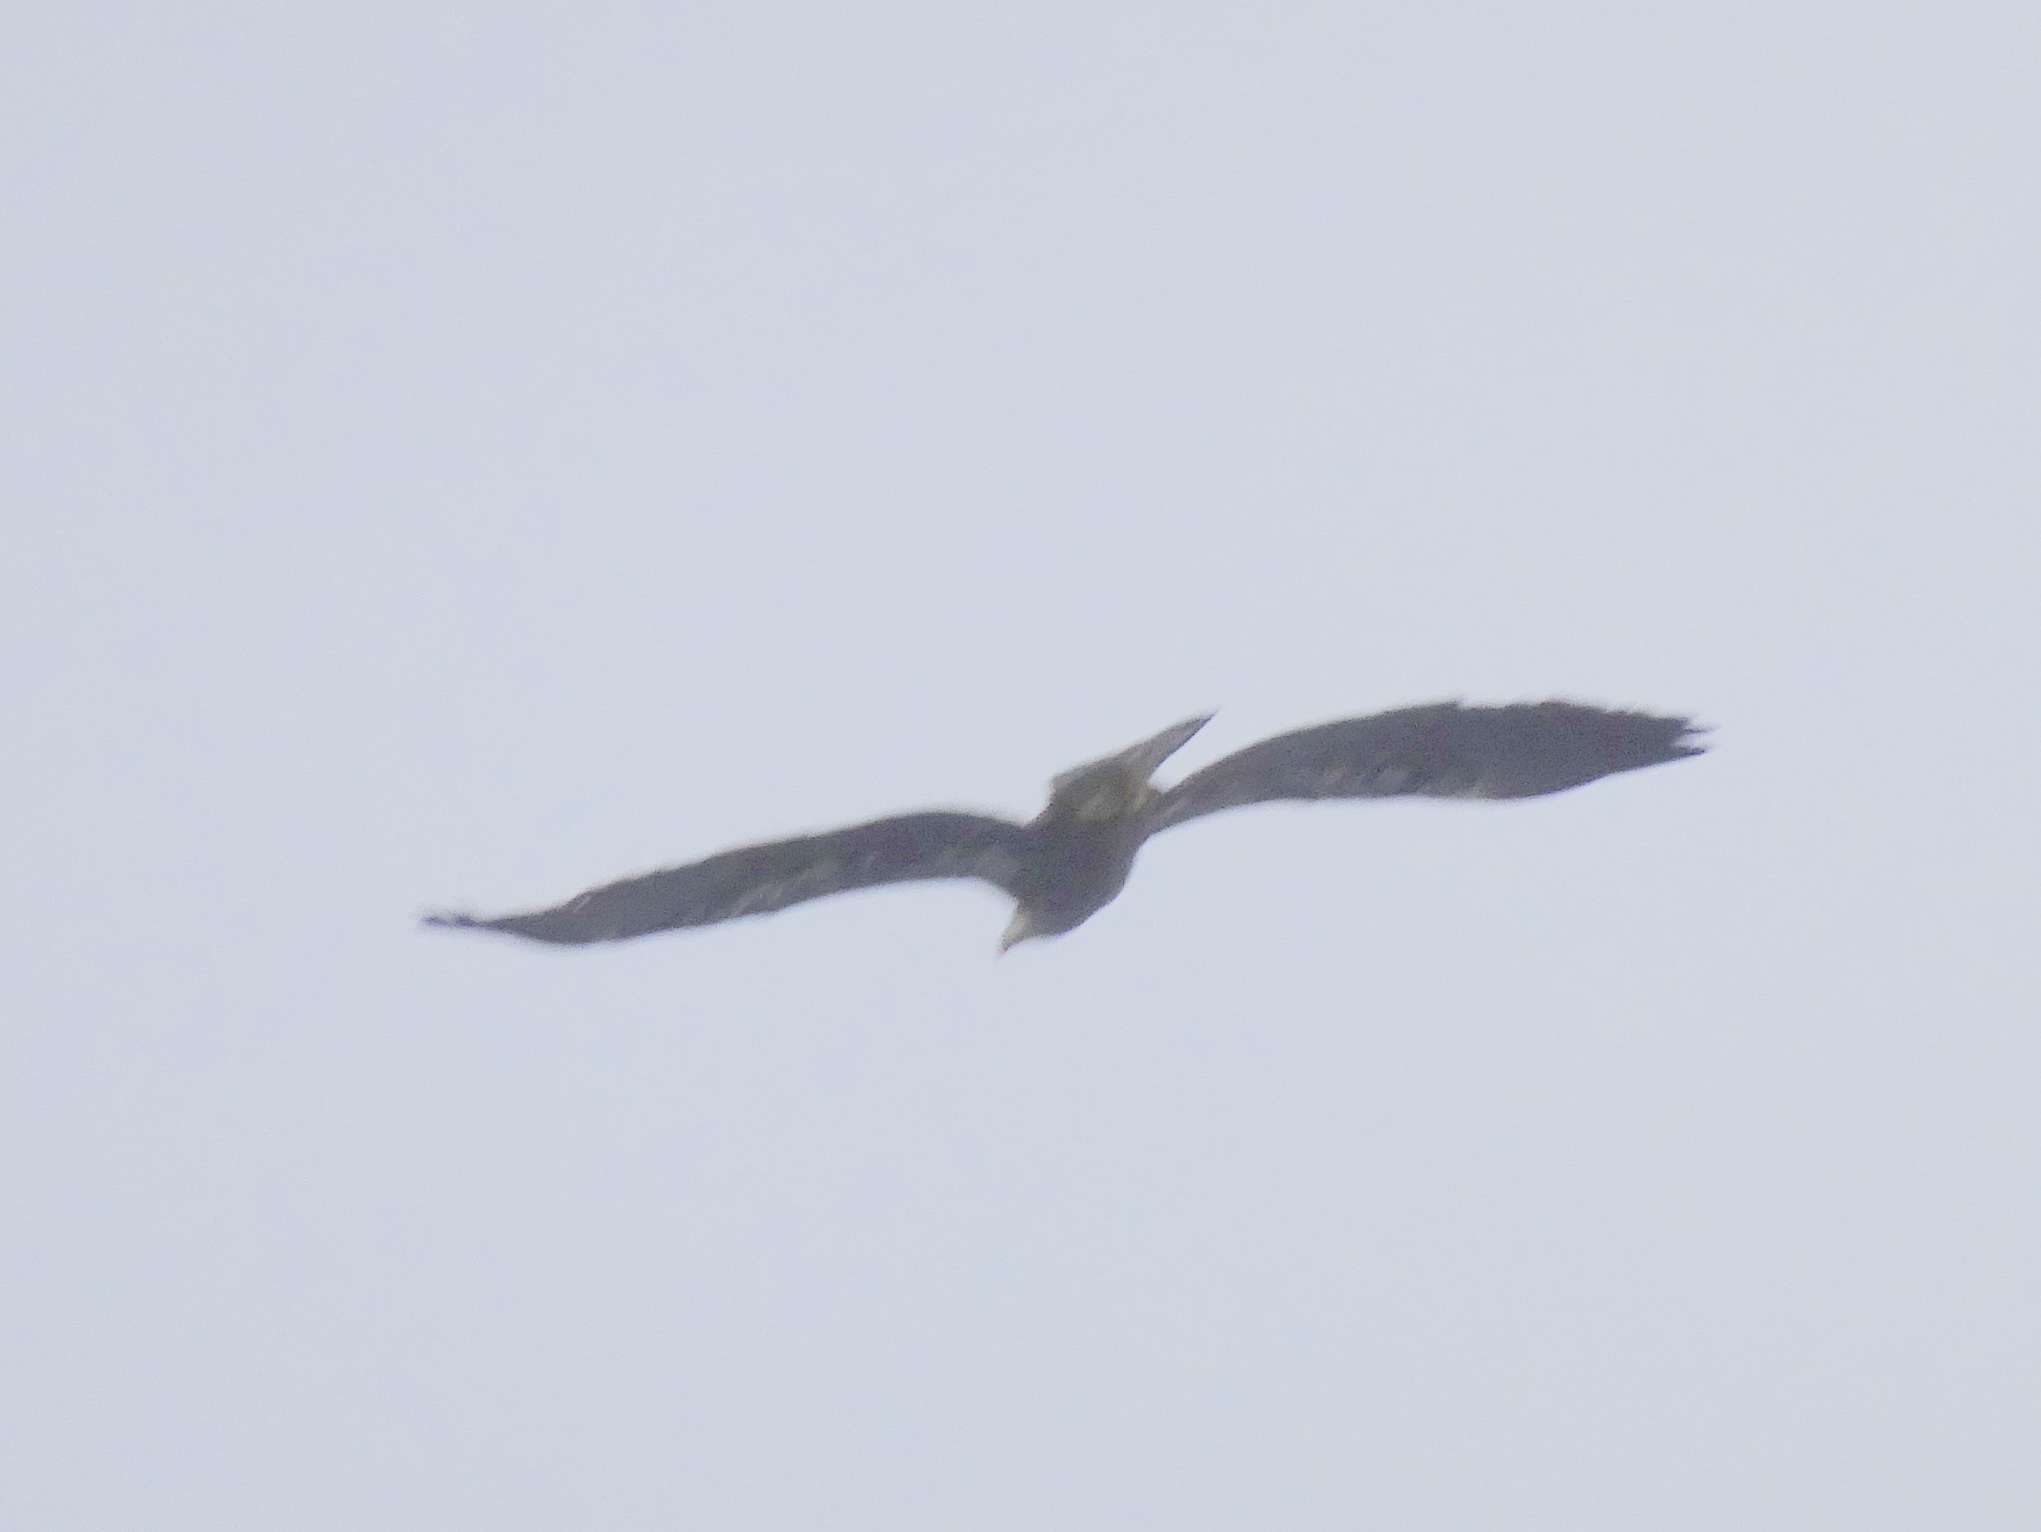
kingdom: Animalia
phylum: Chordata
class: Aves
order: Accipitriformes
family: Accipitridae
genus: Haliaeetus
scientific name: Haliaeetus leucocephalus
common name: Bald eagle
